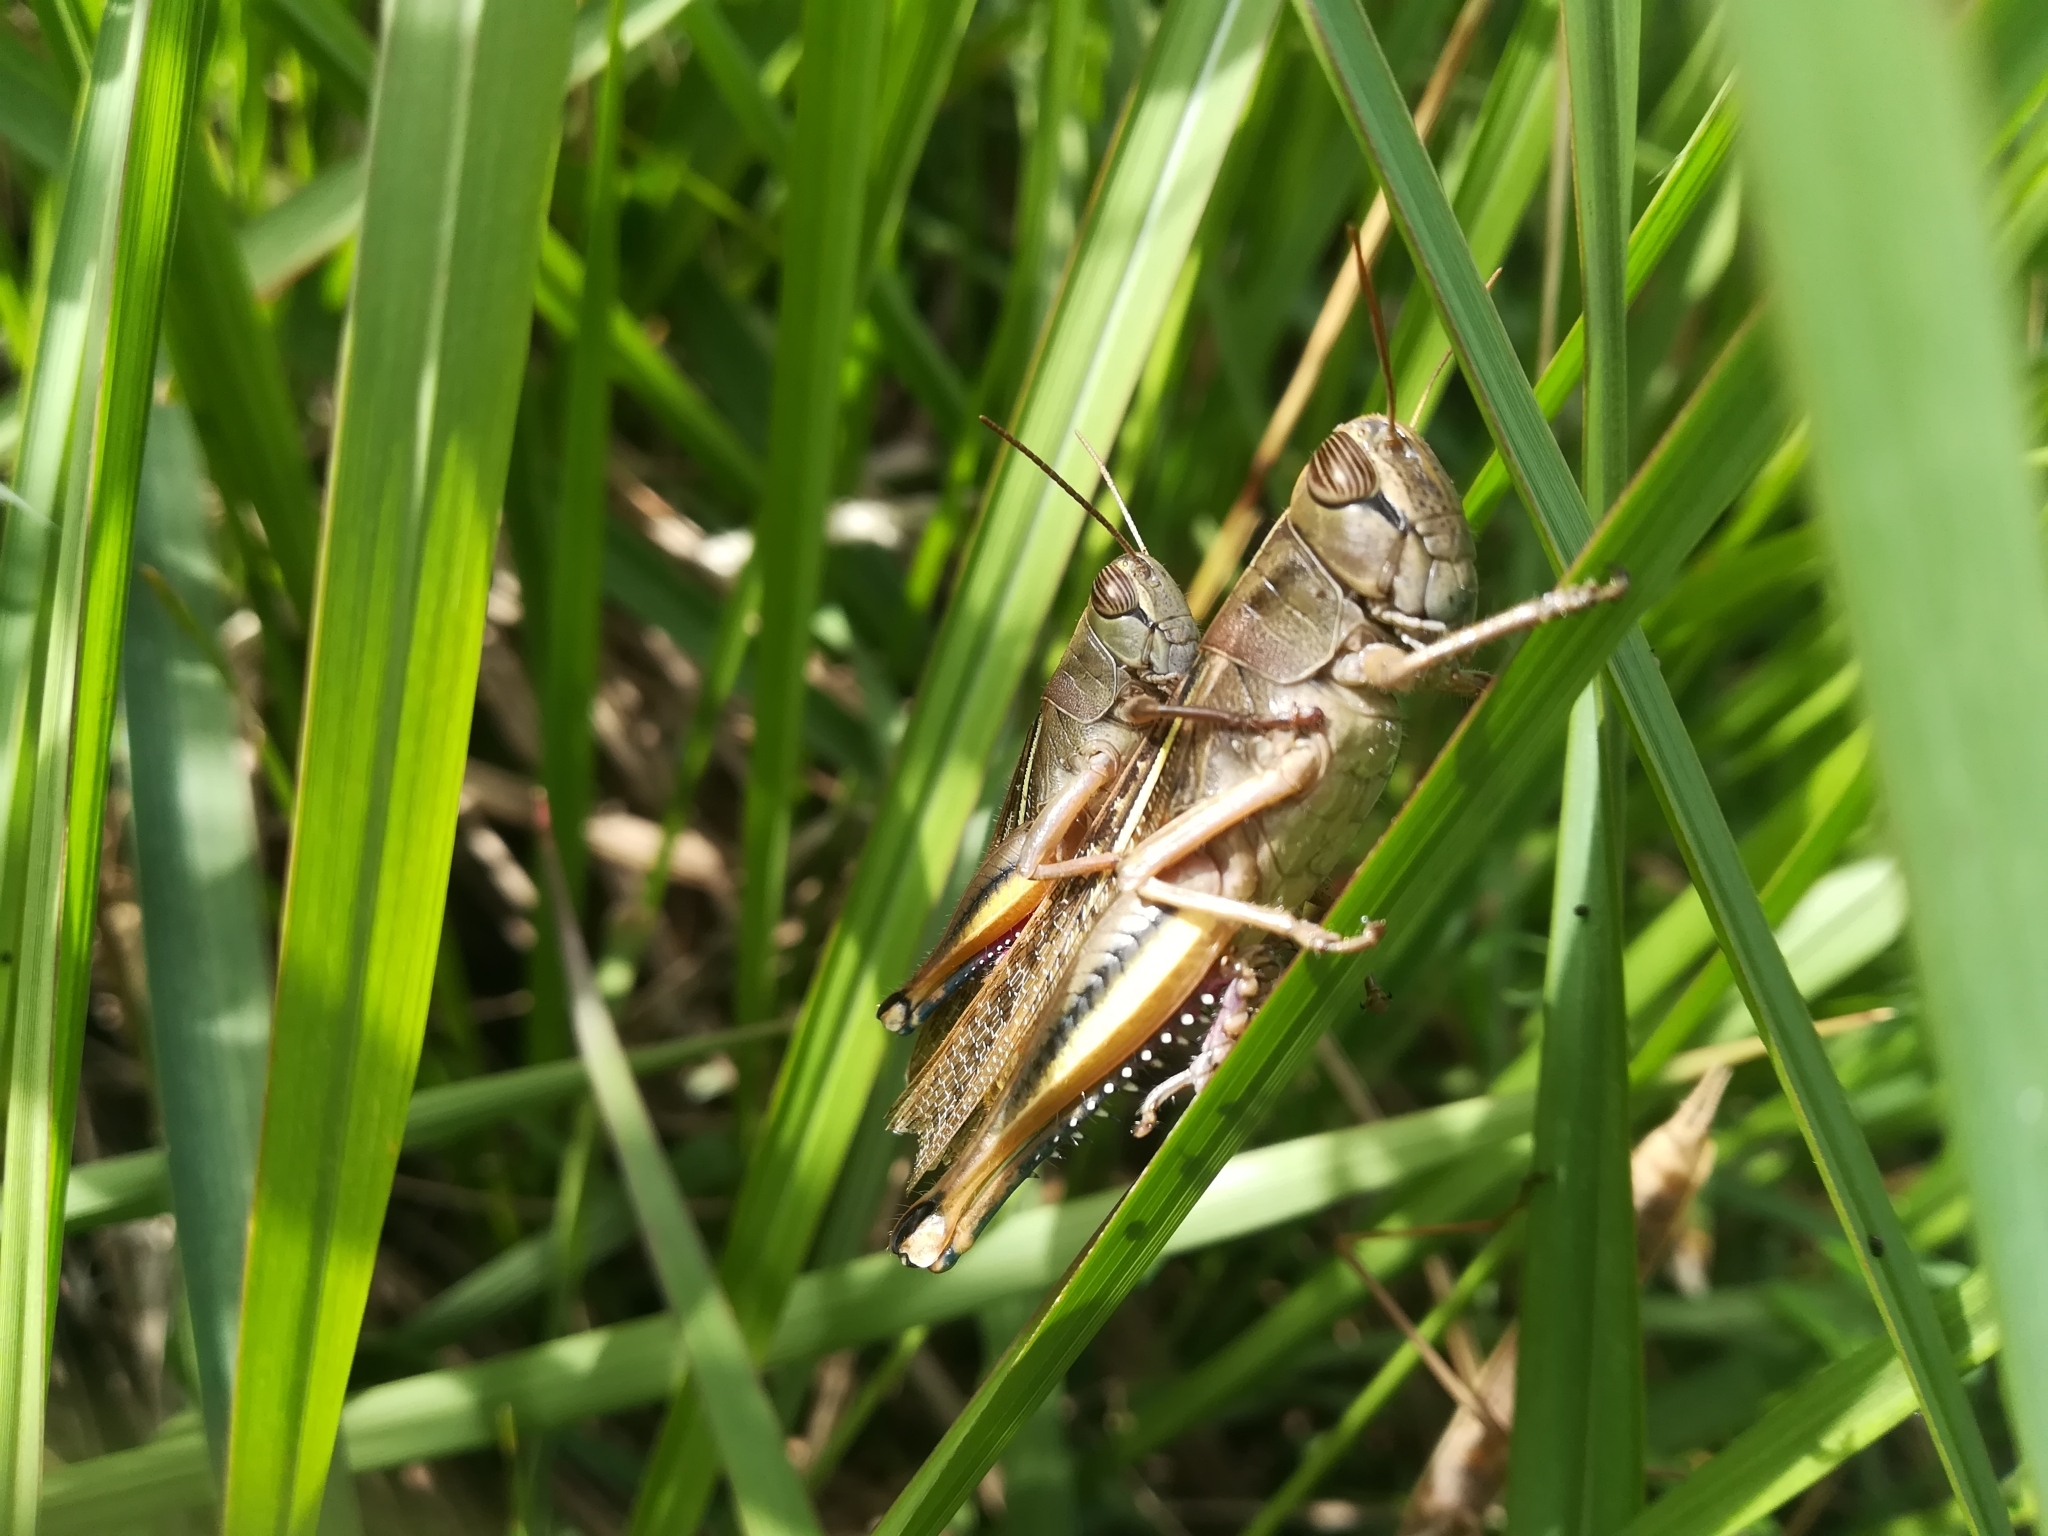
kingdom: Animalia
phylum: Arthropoda
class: Insecta
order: Orthoptera
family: Acrididae
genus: Eyprepocnemis
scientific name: Eyprepocnemis plorans
